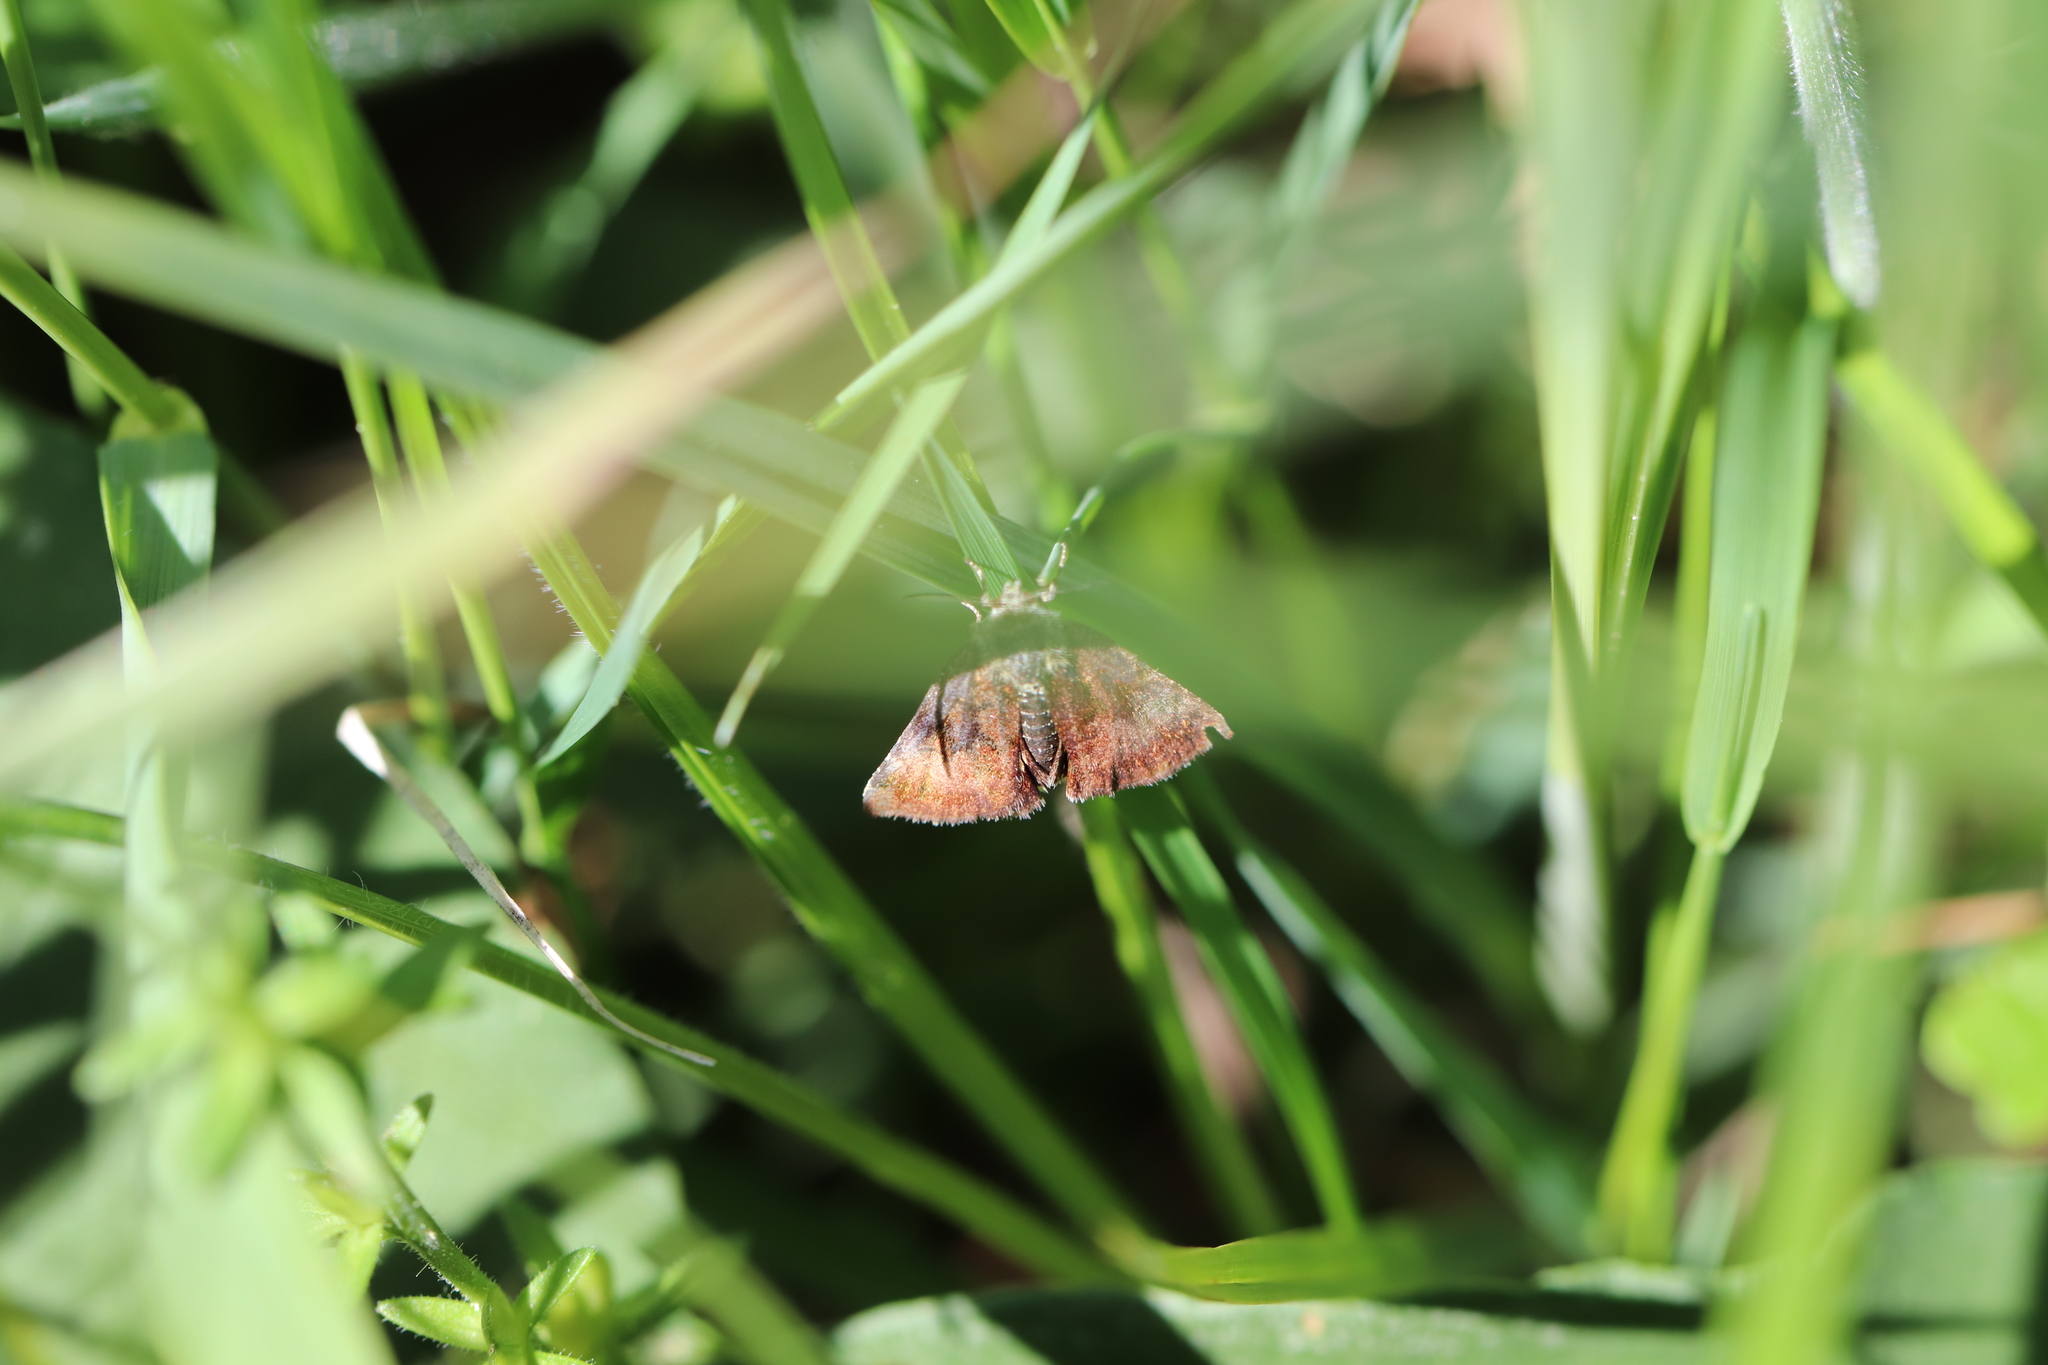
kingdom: Animalia
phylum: Arthropoda
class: Insecta
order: Lepidoptera
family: Noctuidae
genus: Panemeria
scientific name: Panemeria tenebrata
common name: Small yellow underwing
